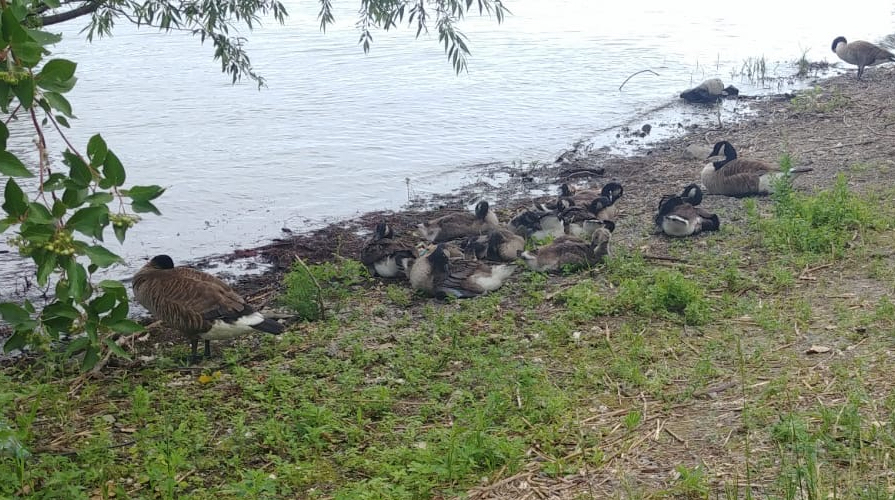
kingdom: Animalia
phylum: Chordata
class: Aves
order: Anseriformes
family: Anatidae
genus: Branta
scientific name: Branta canadensis
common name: Canada goose
